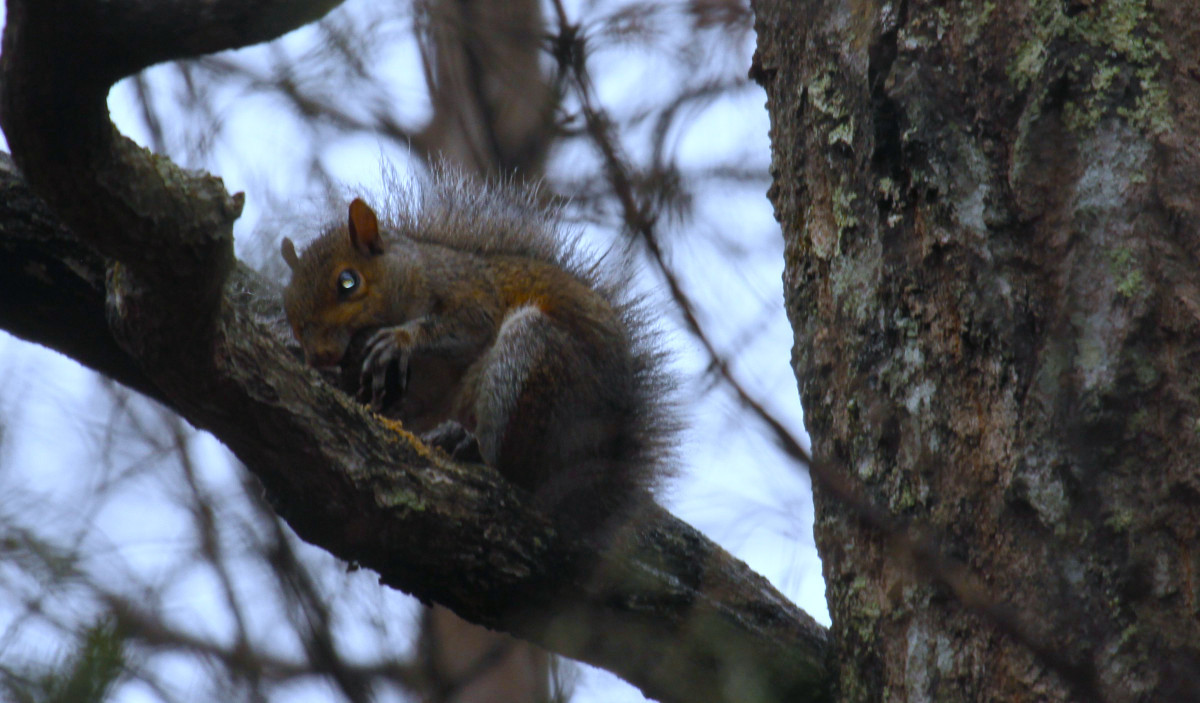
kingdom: Animalia
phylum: Chordata
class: Mammalia
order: Rodentia
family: Sciuridae
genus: Sciurus
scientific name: Sciurus carolinensis
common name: Eastern gray squirrel
